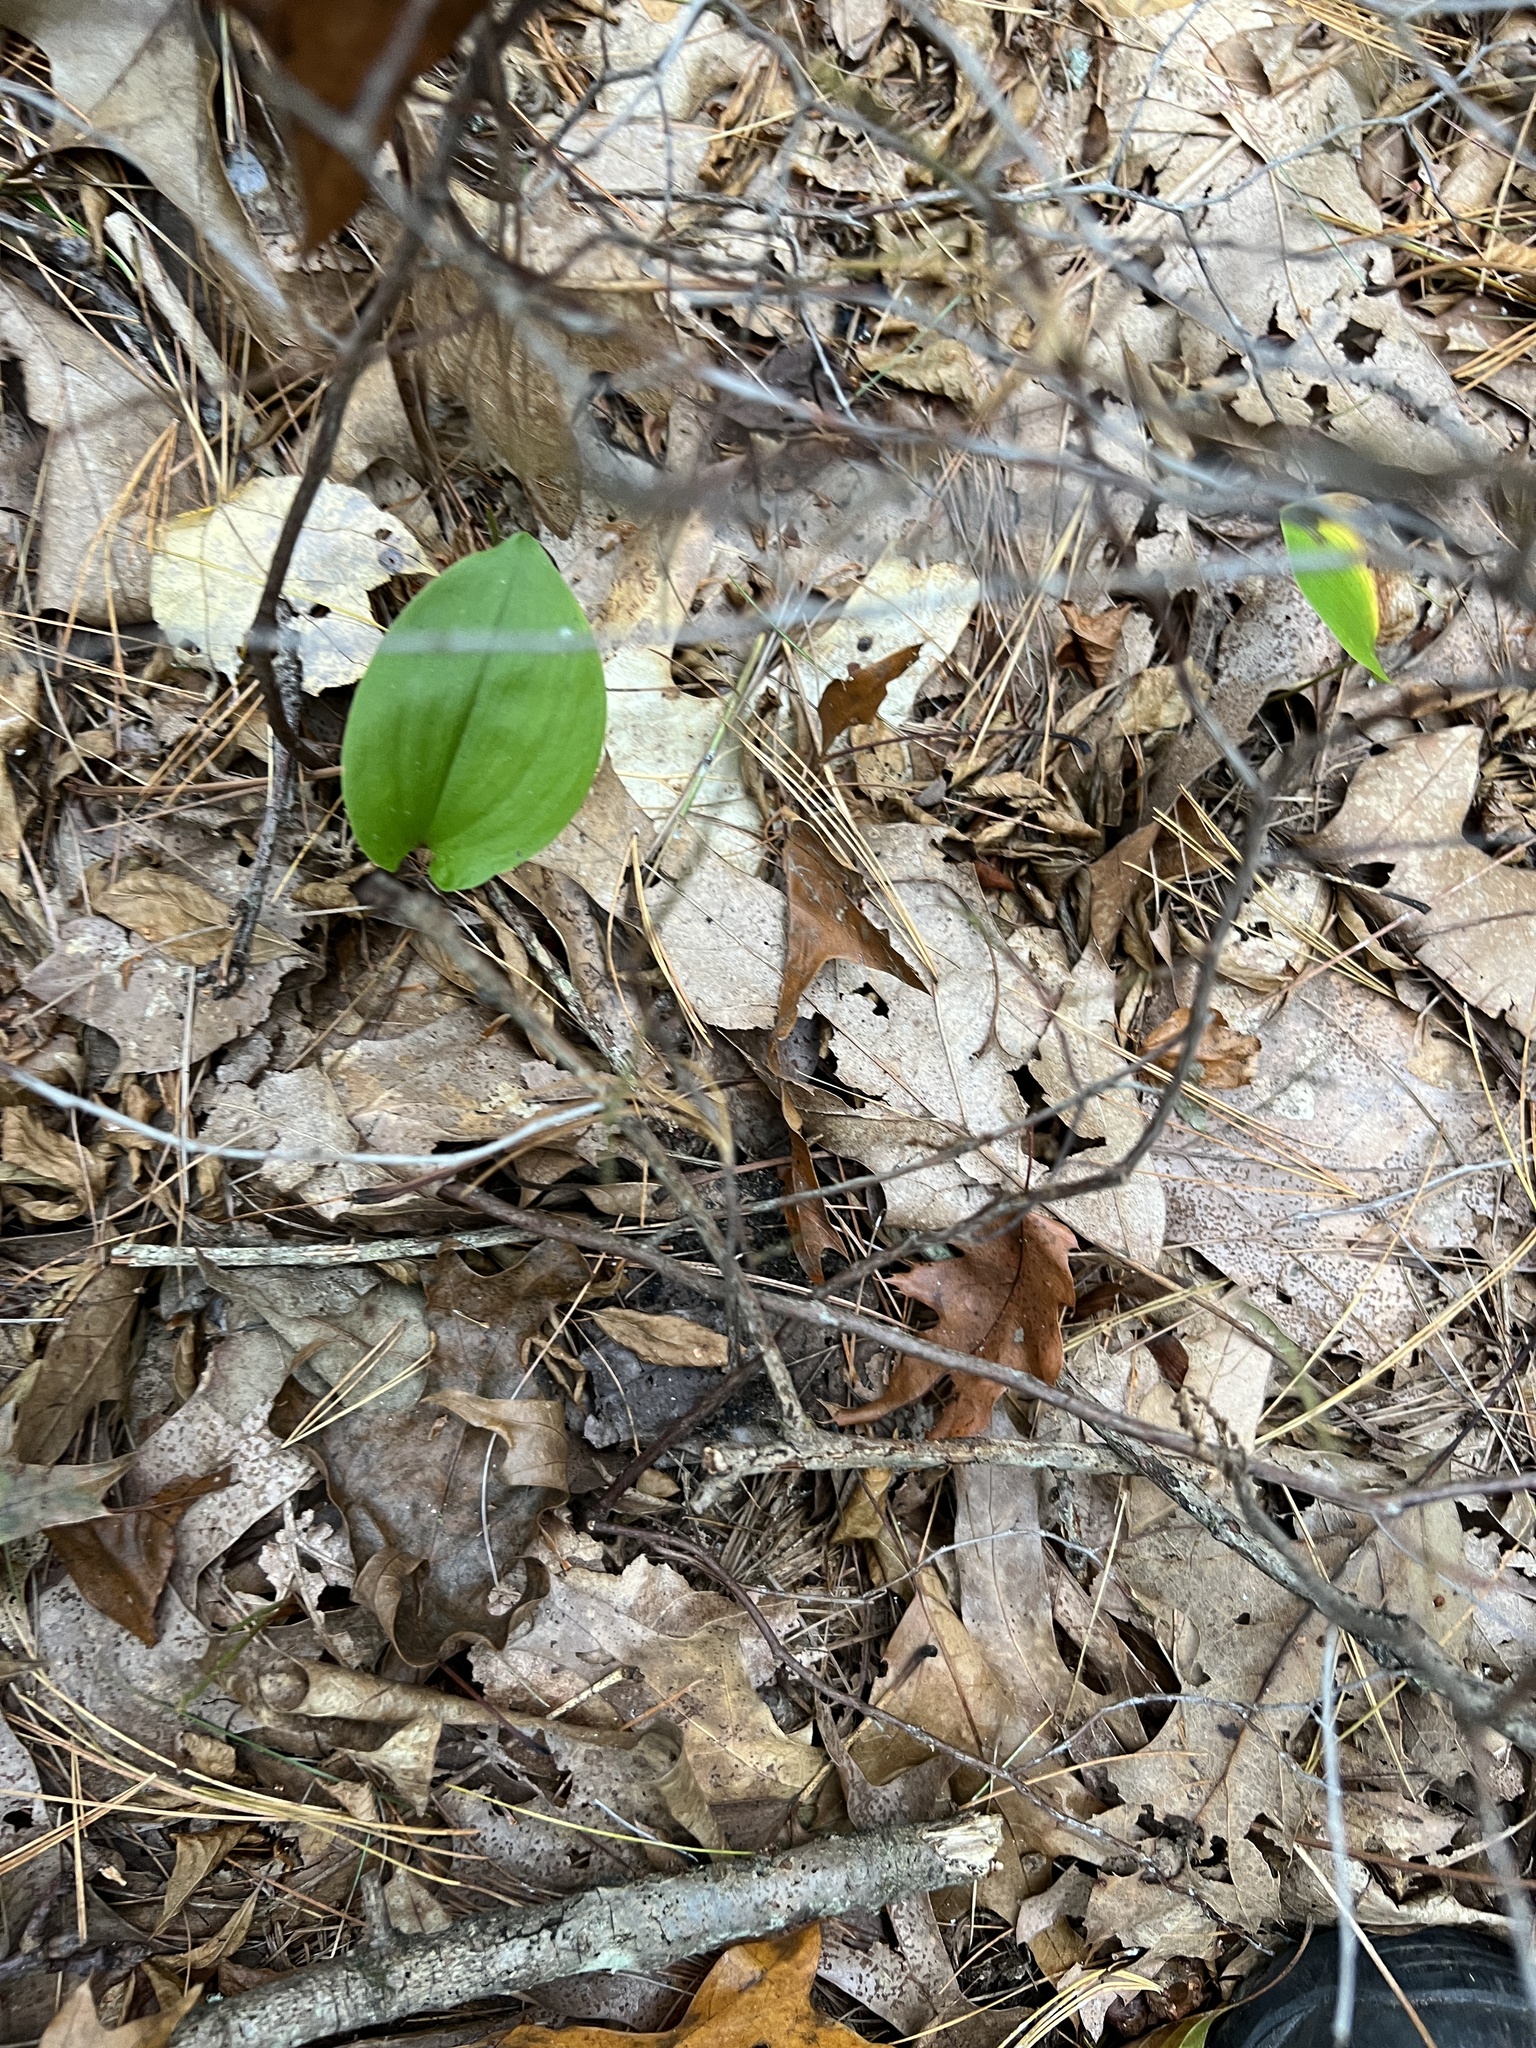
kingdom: Plantae
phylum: Tracheophyta
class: Liliopsida
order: Asparagales
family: Asparagaceae
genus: Maianthemum
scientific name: Maianthemum canadense
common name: False lily-of-the-valley
